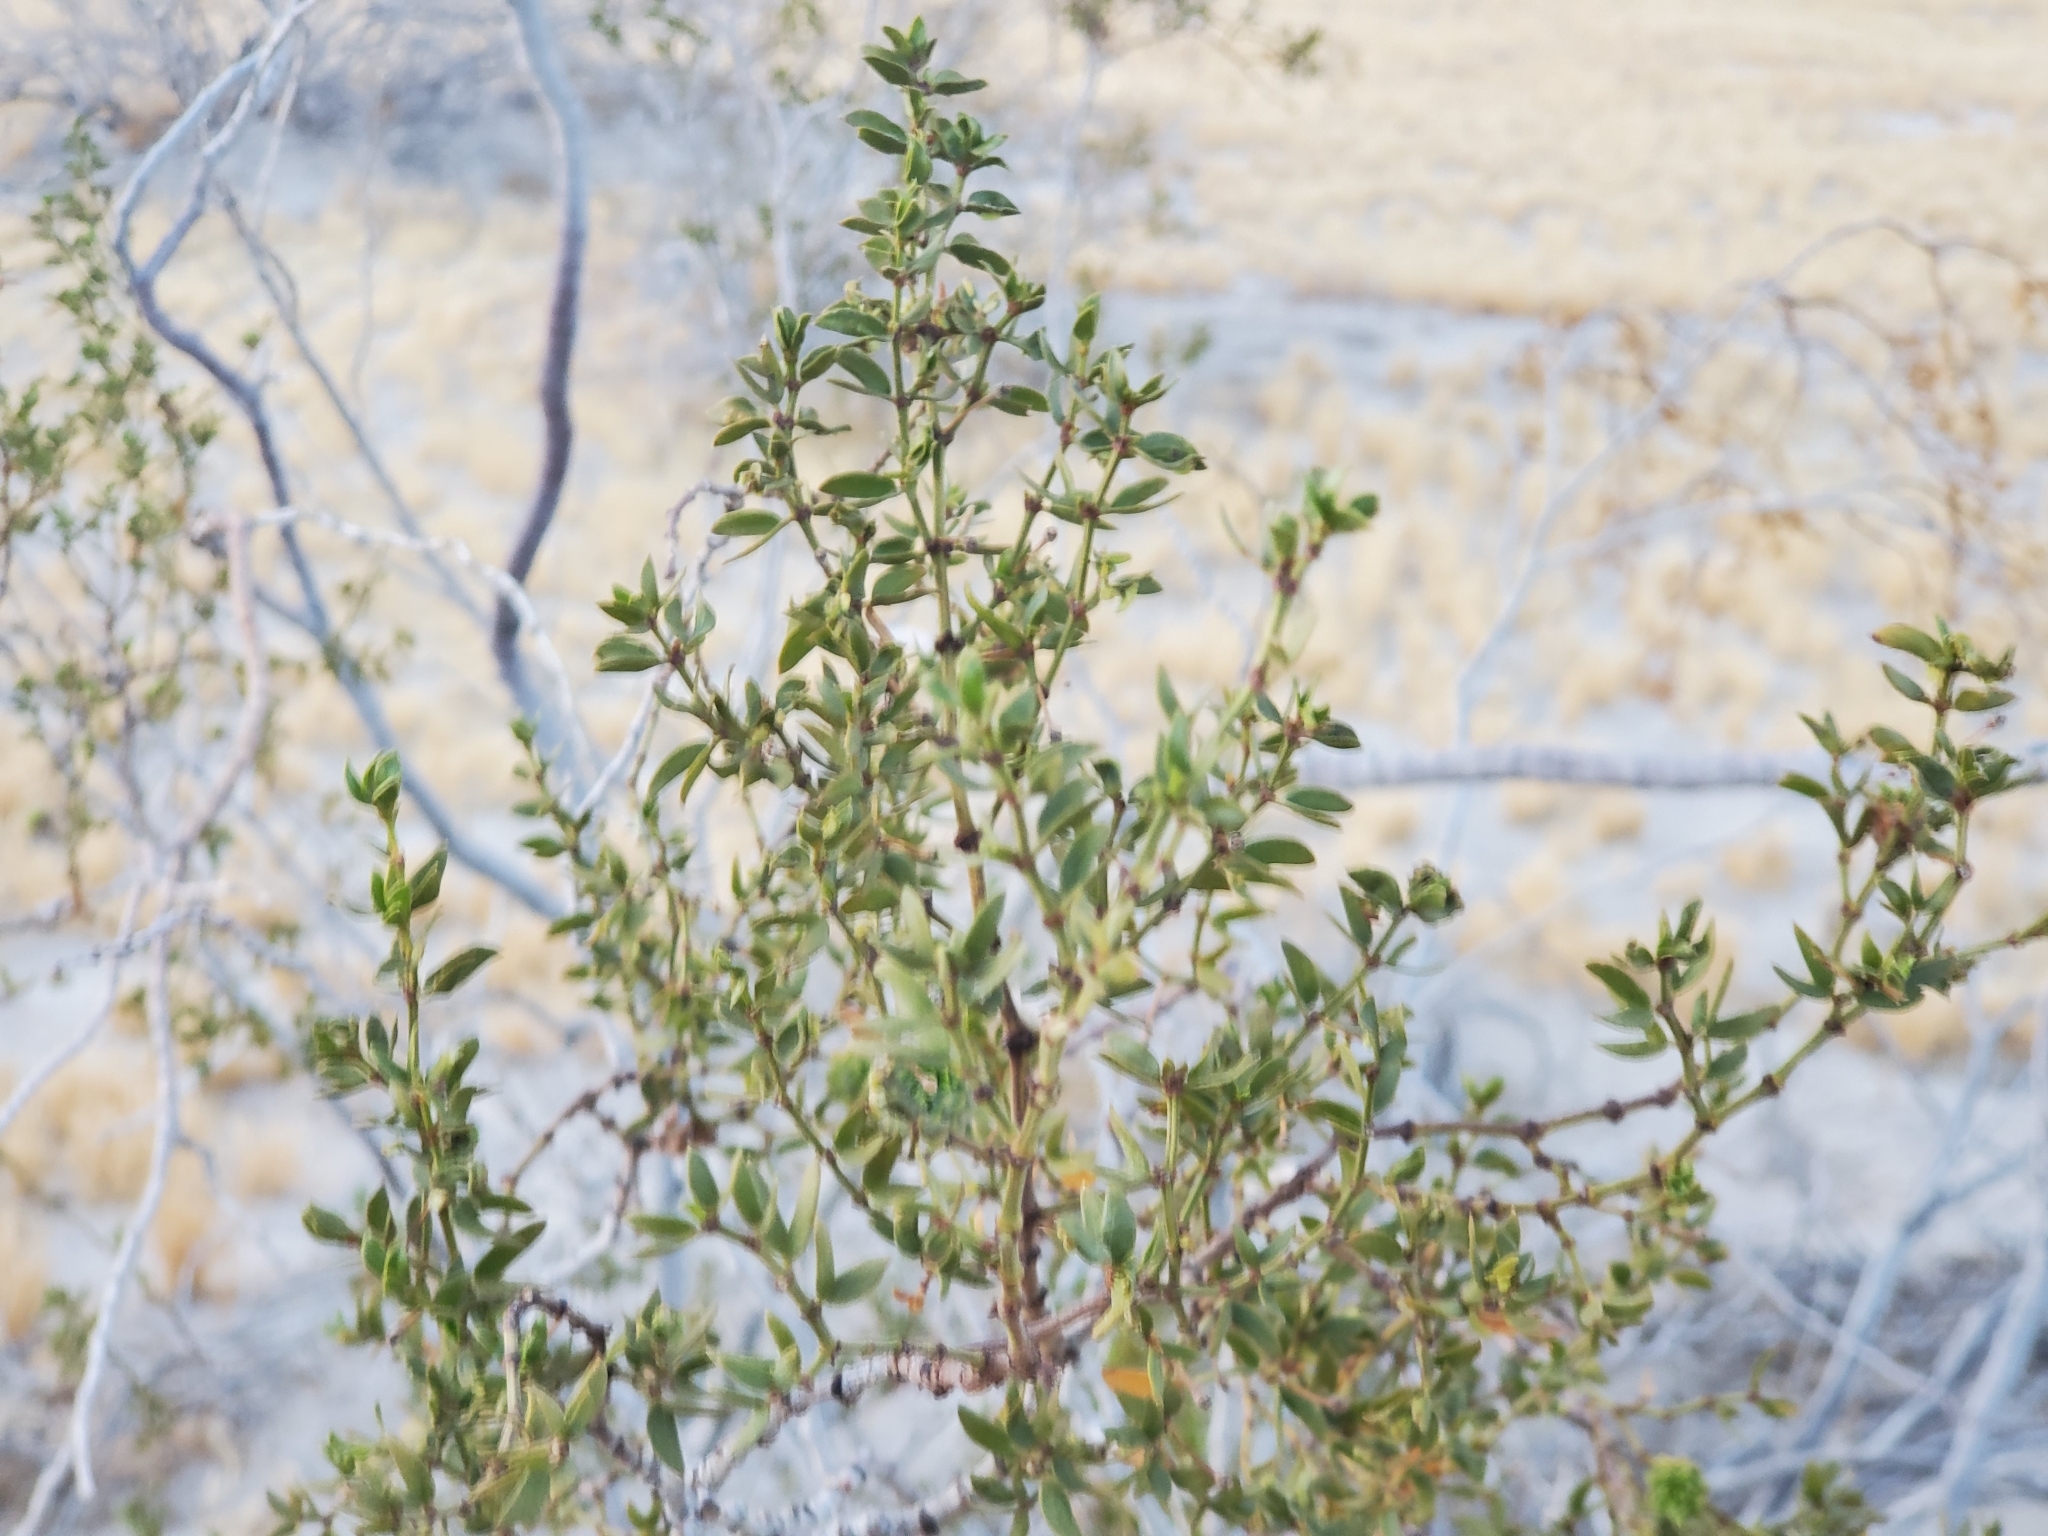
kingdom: Plantae
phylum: Tracheophyta
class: Magnoliopsida
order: Zygophyllales
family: Zygophyllaceae
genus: Larrea
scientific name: Larrea tridentata
